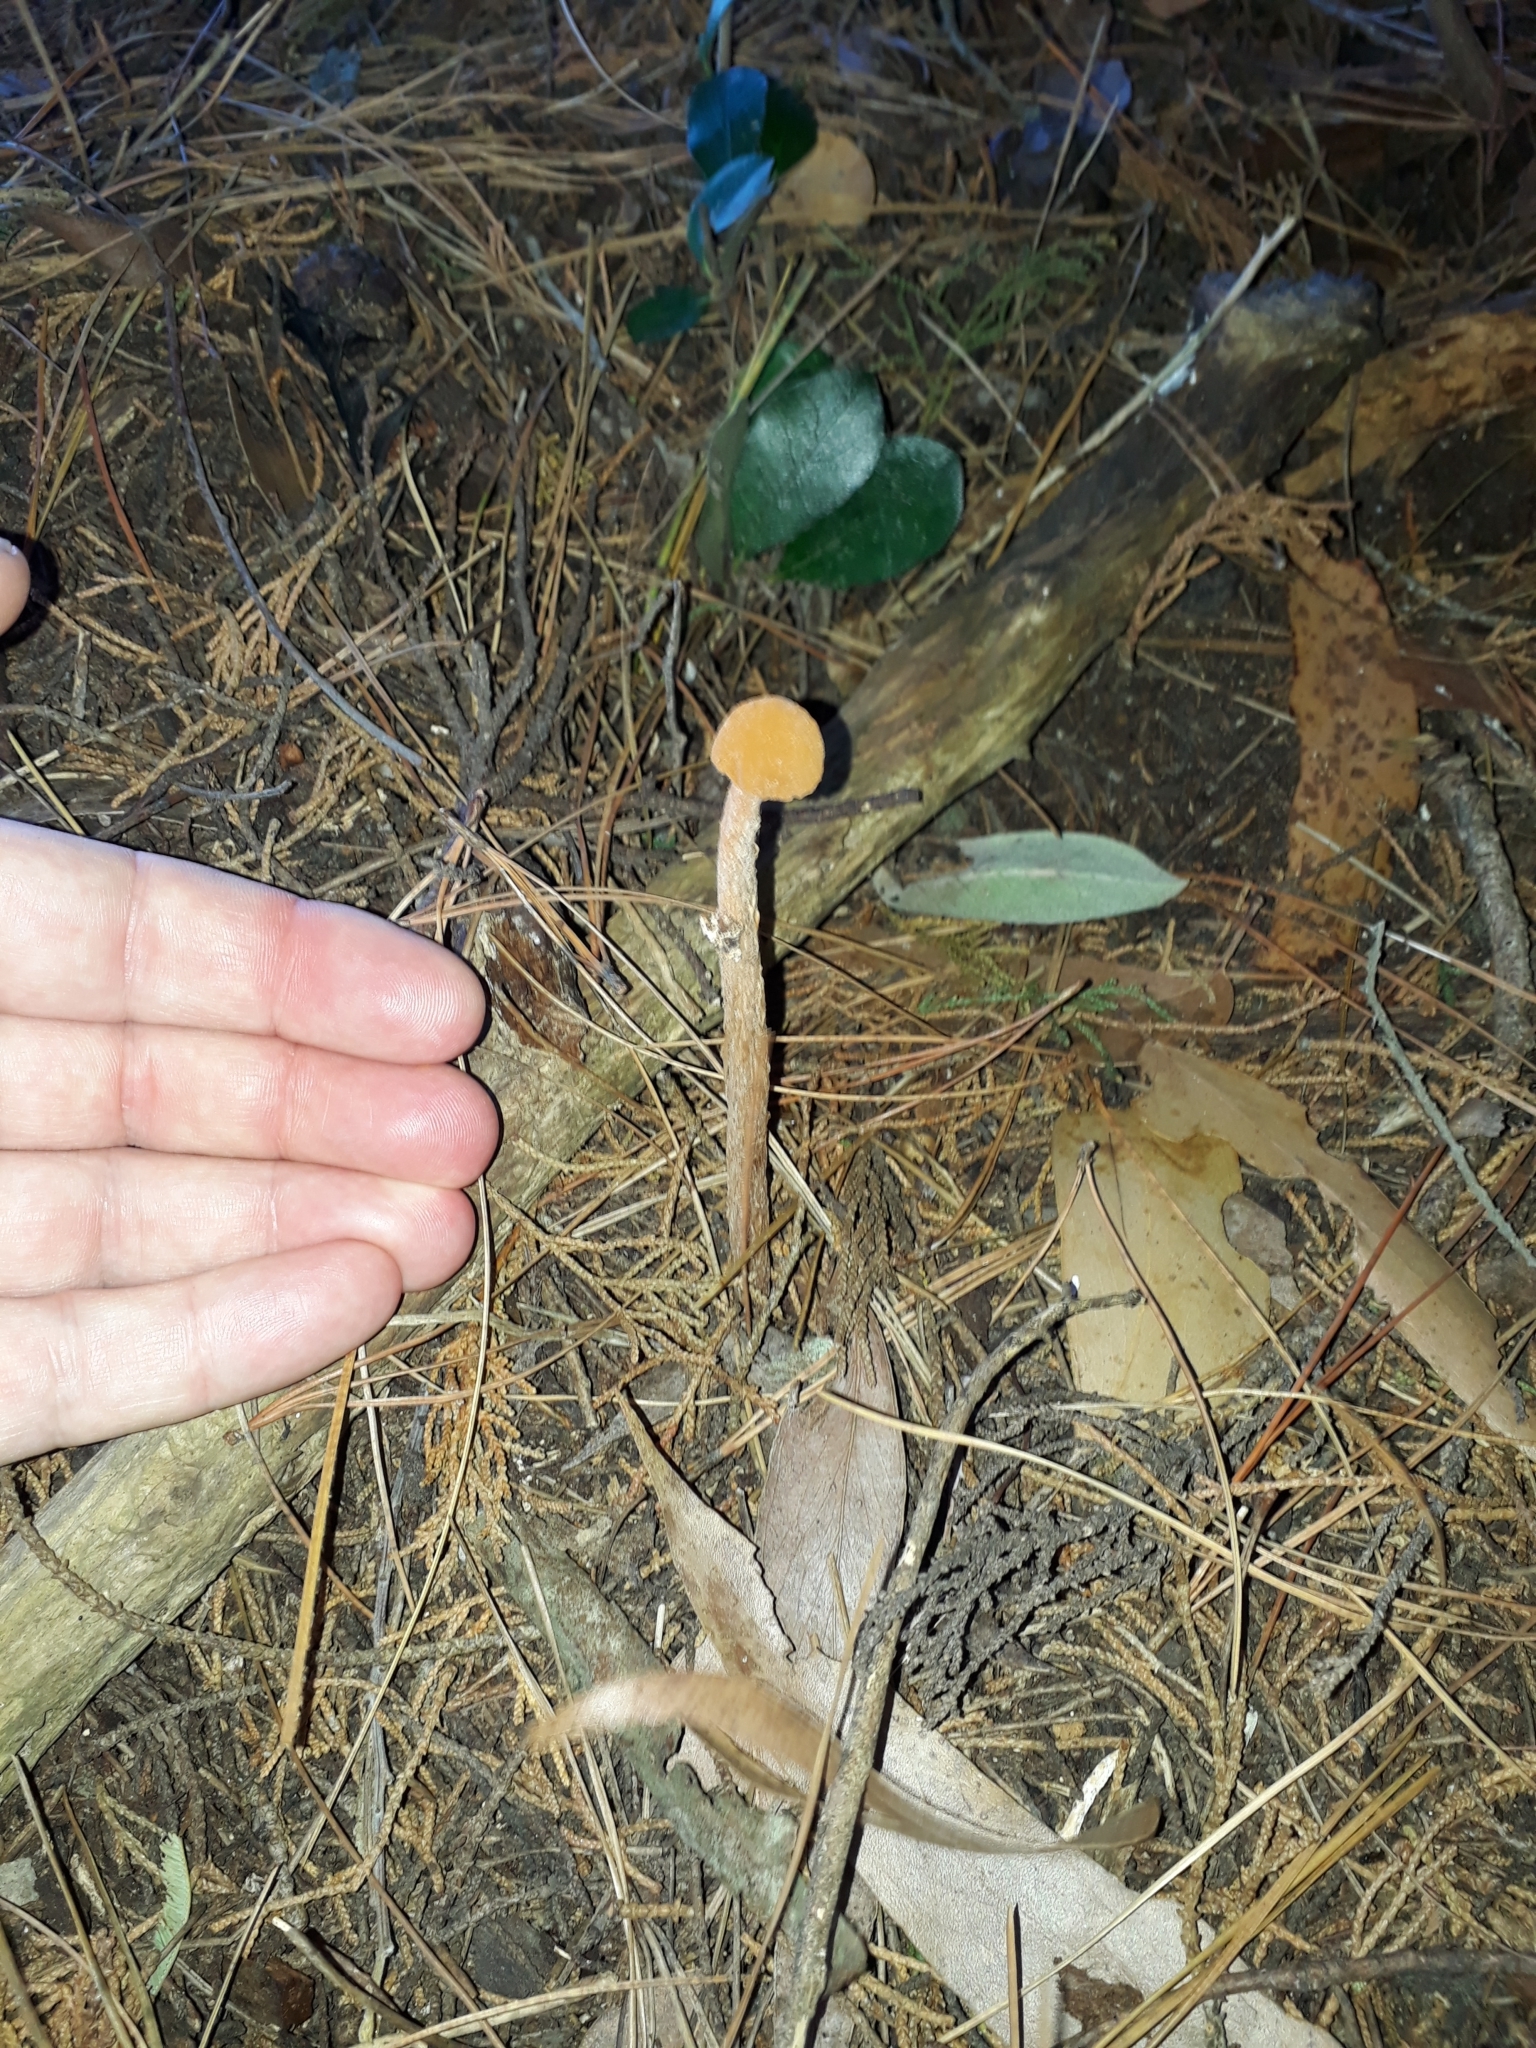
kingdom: Fungi
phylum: Basidiomycota
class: Agaricomycetes
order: Agaricales
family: Agaricaceae
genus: Battarrea
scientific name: Battarrea phalloides
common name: Sandy stiltball
